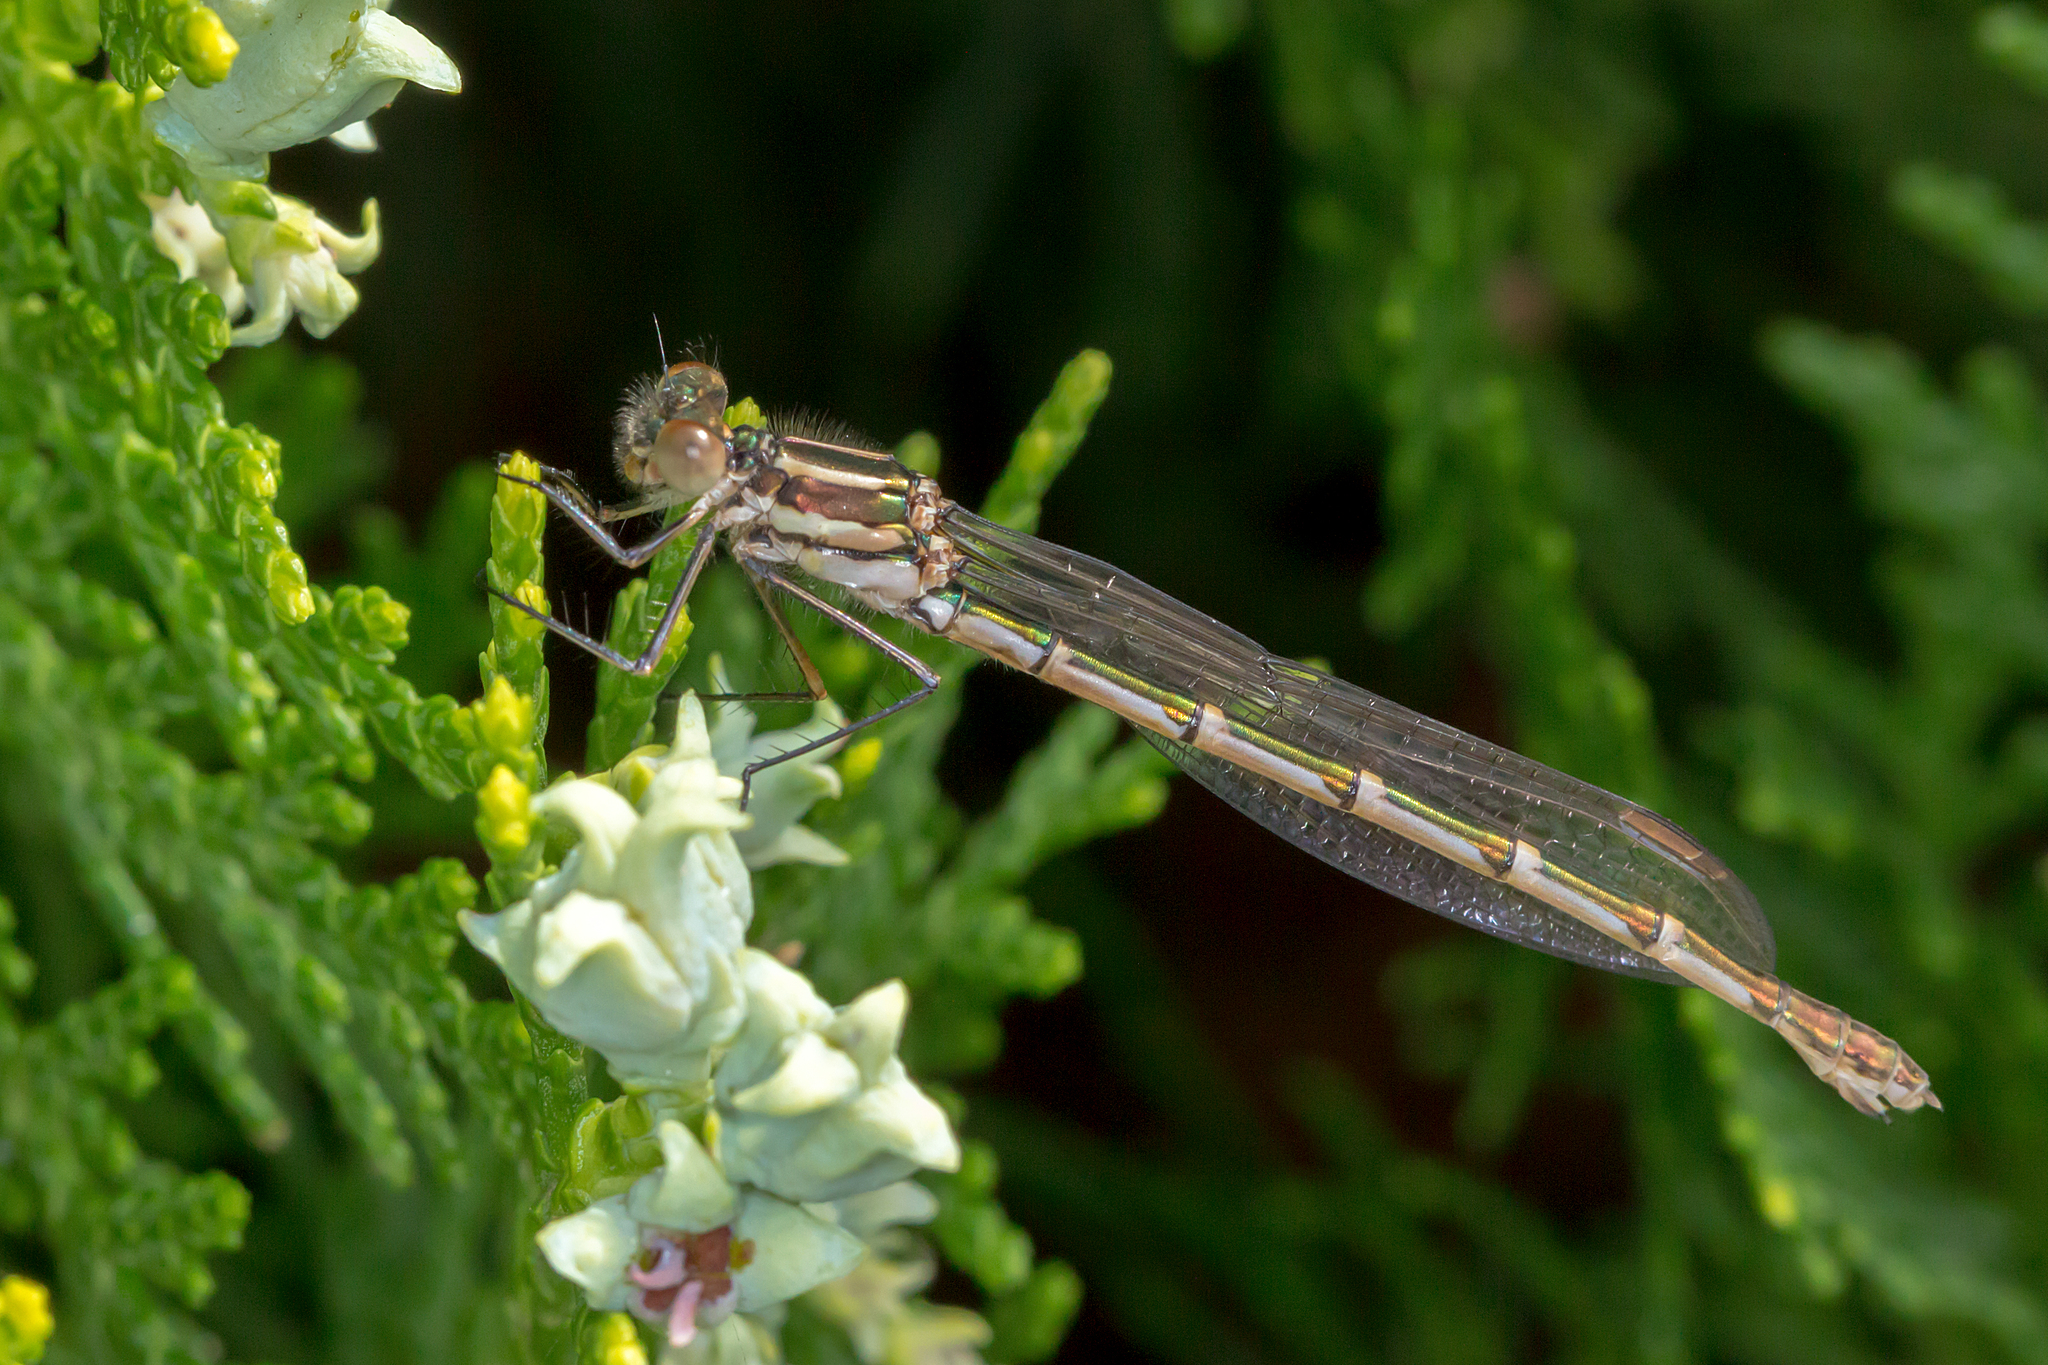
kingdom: Animalia
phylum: Arthropoda
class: Insecta
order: Odonata
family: Lestidae
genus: Austrolestes
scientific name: Austrolestes annulosus
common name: Blue ringtail
